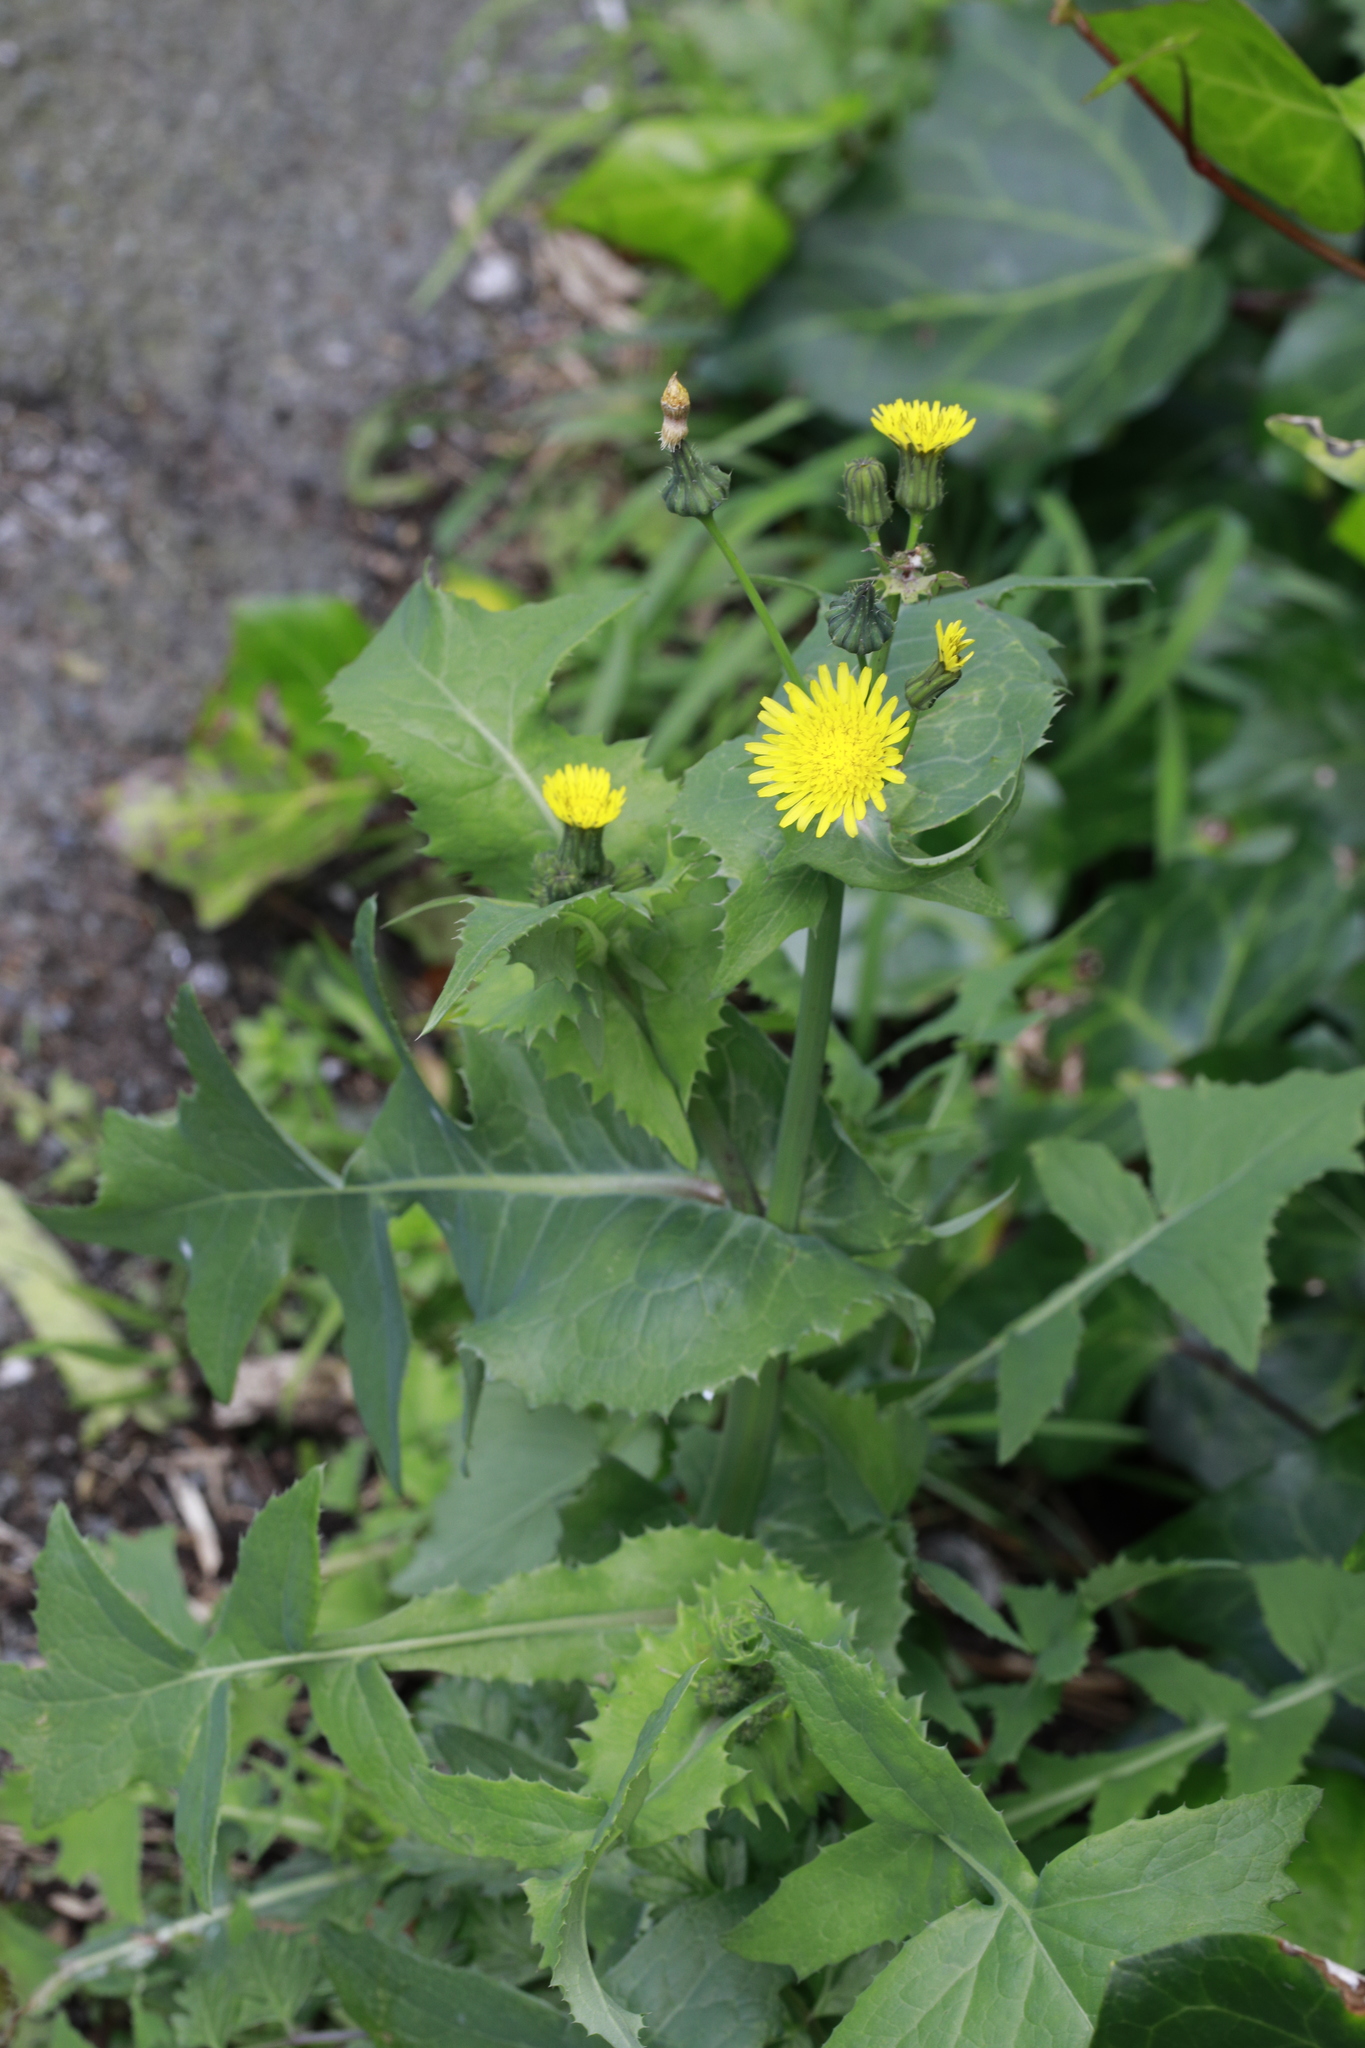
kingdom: Plantae
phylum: Tracheophyta
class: Magnoliopsida
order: Asterales
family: Asteraceae
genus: Sonchus
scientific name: Sonchus oleraceus
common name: Common sowthistle
